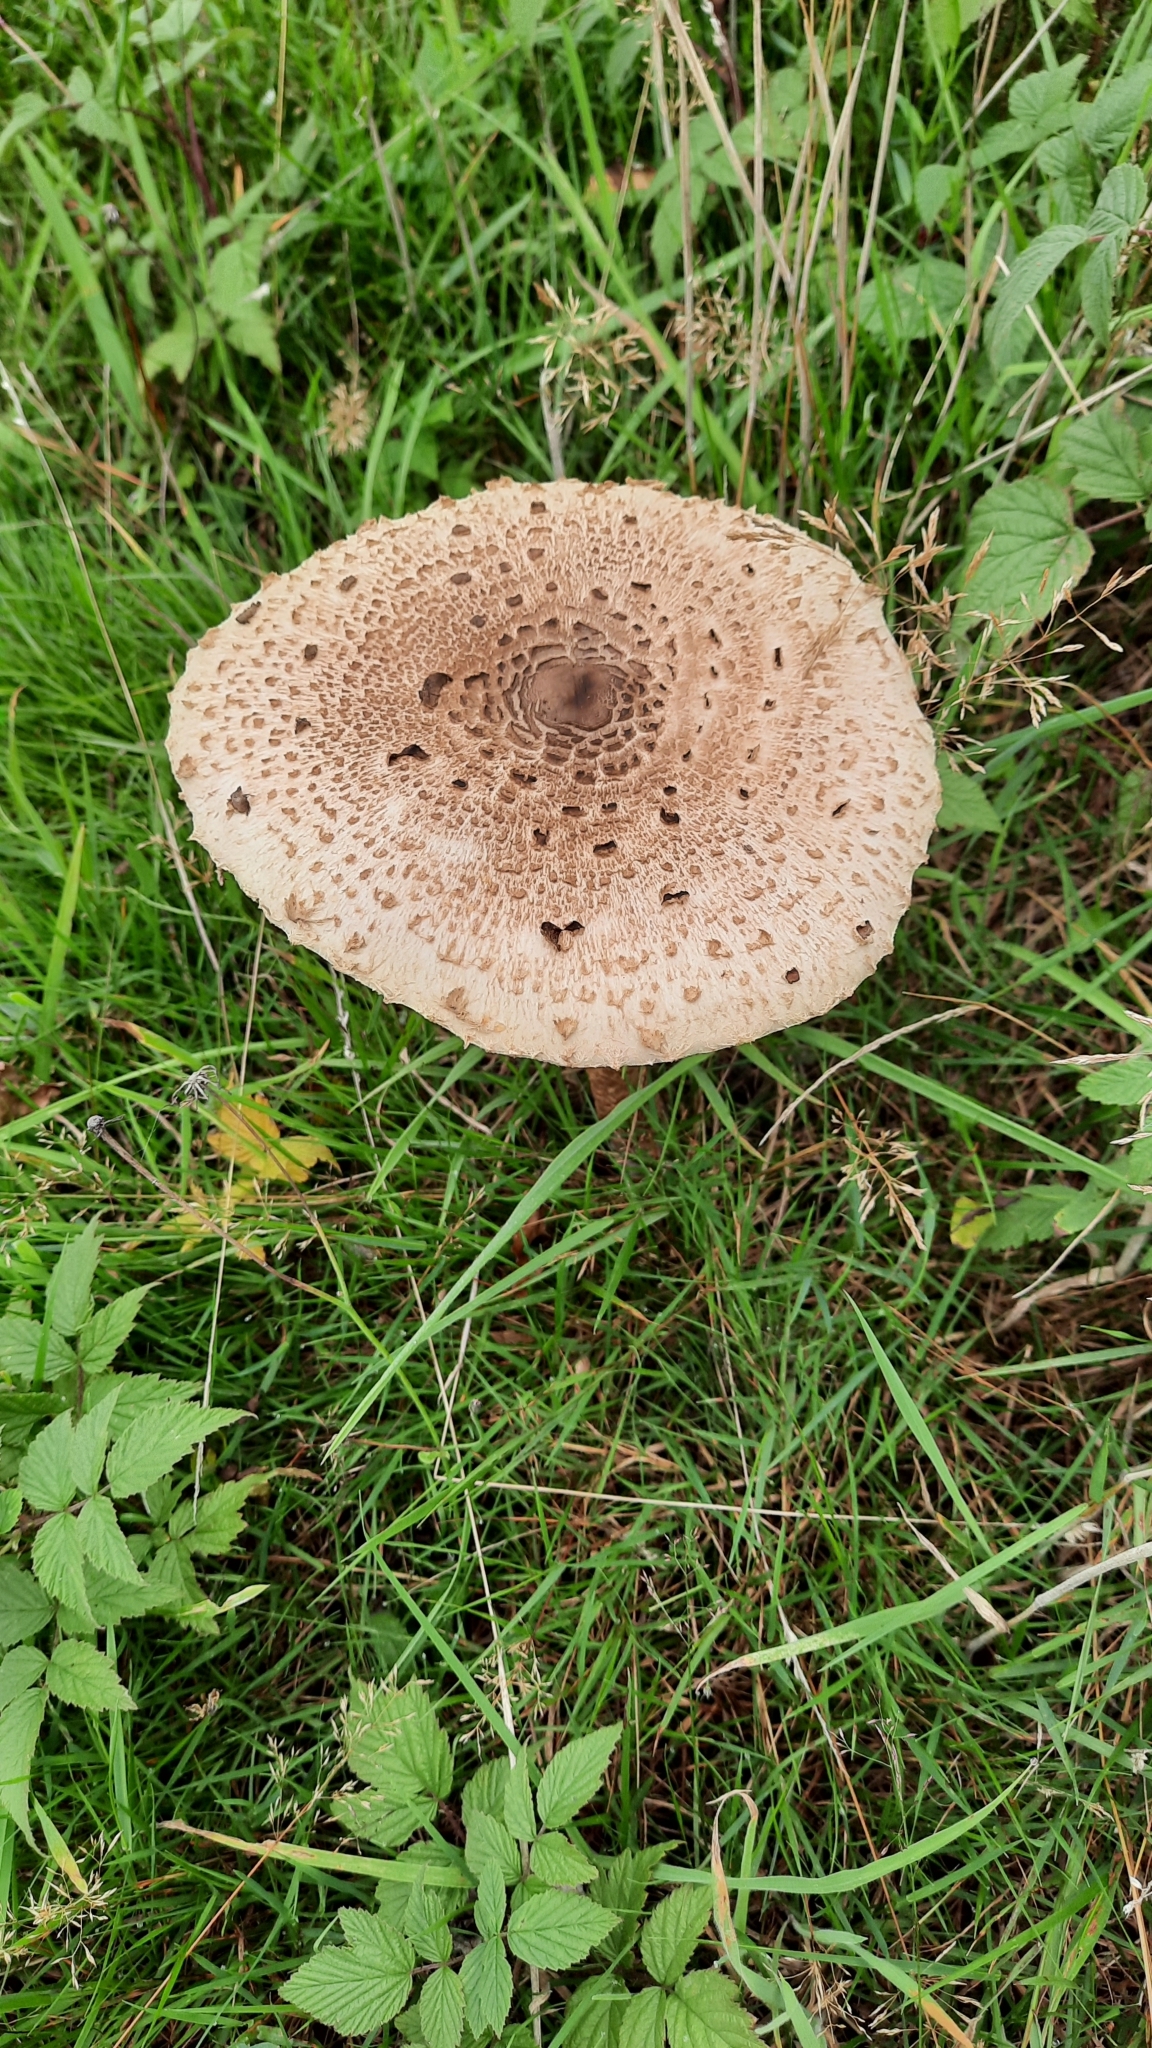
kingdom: Fungi
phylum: Basidiomycota
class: Agaricomycetes
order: Agaricales
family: Agaricaceae
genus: Macrolepiota
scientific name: Macrolepiota procera
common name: Parasol
